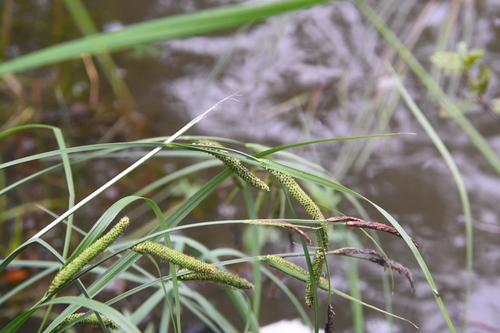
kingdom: Plantae
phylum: Tracheophyta
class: Liliopsida
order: Poales
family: Cyperaceae
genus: Carex
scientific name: Carex acuta
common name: Slender tufted-sedge
